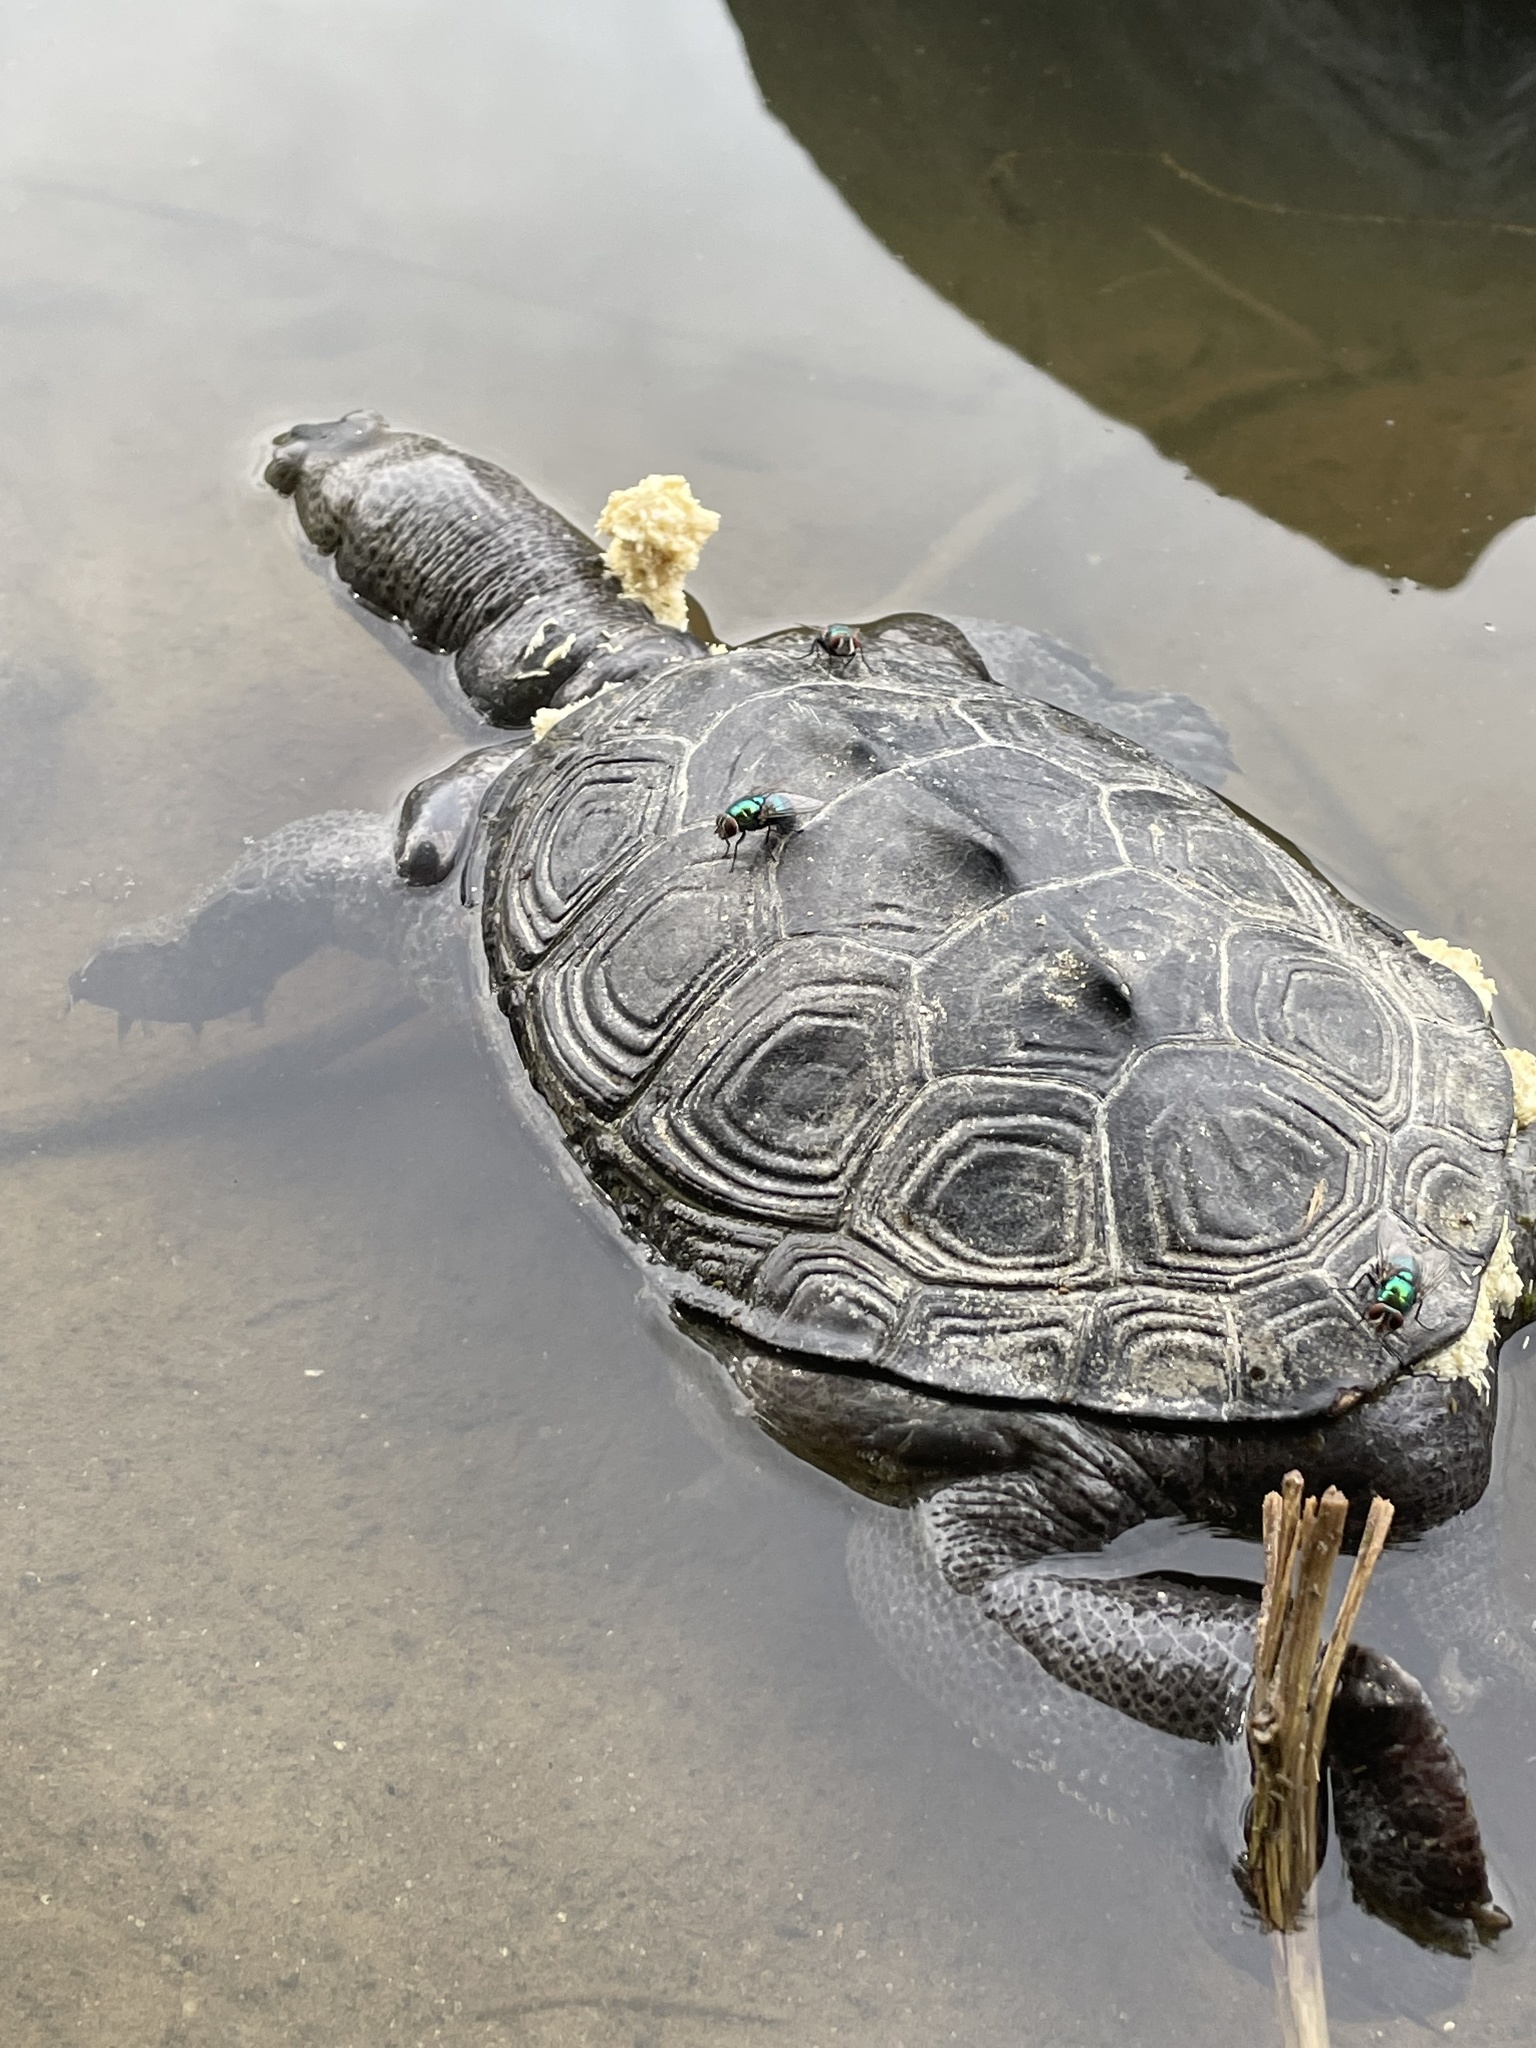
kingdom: Animalia
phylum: Chordata
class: Testudines
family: Emydidae
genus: Malaclemys
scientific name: Malaclemys terrapin
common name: Diamondback terrapin
